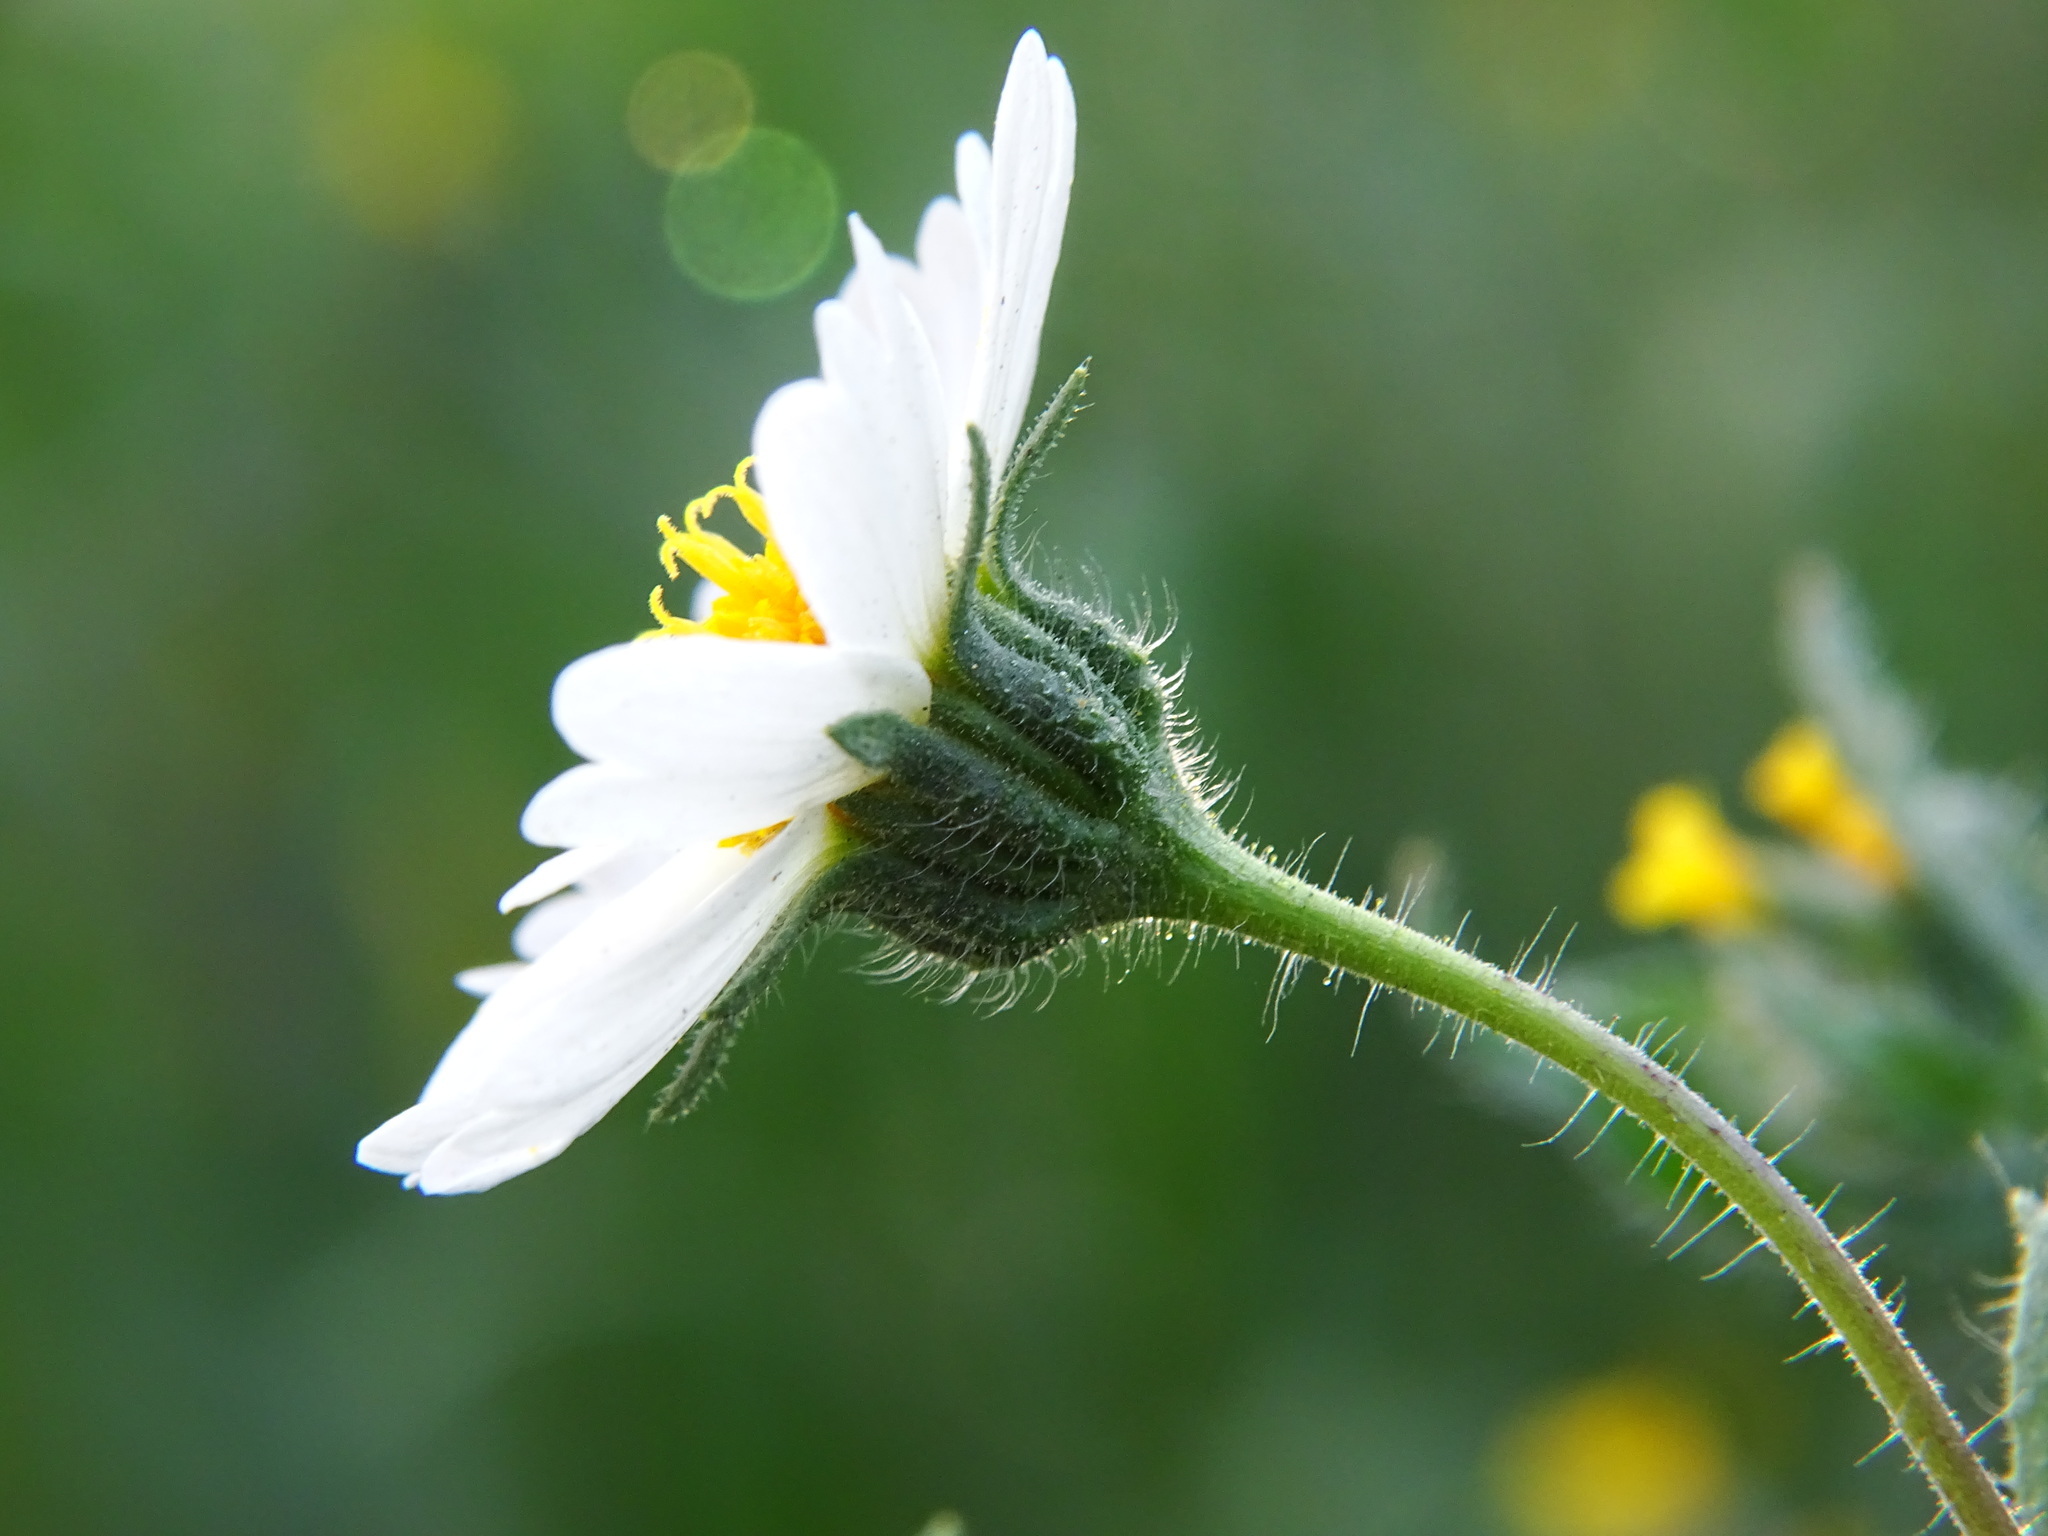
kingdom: Plantae
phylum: Tracheophyta
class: Magnoliopsida
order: Asterales
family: Asteraceae
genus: Layia
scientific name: Layia pentachaeta
